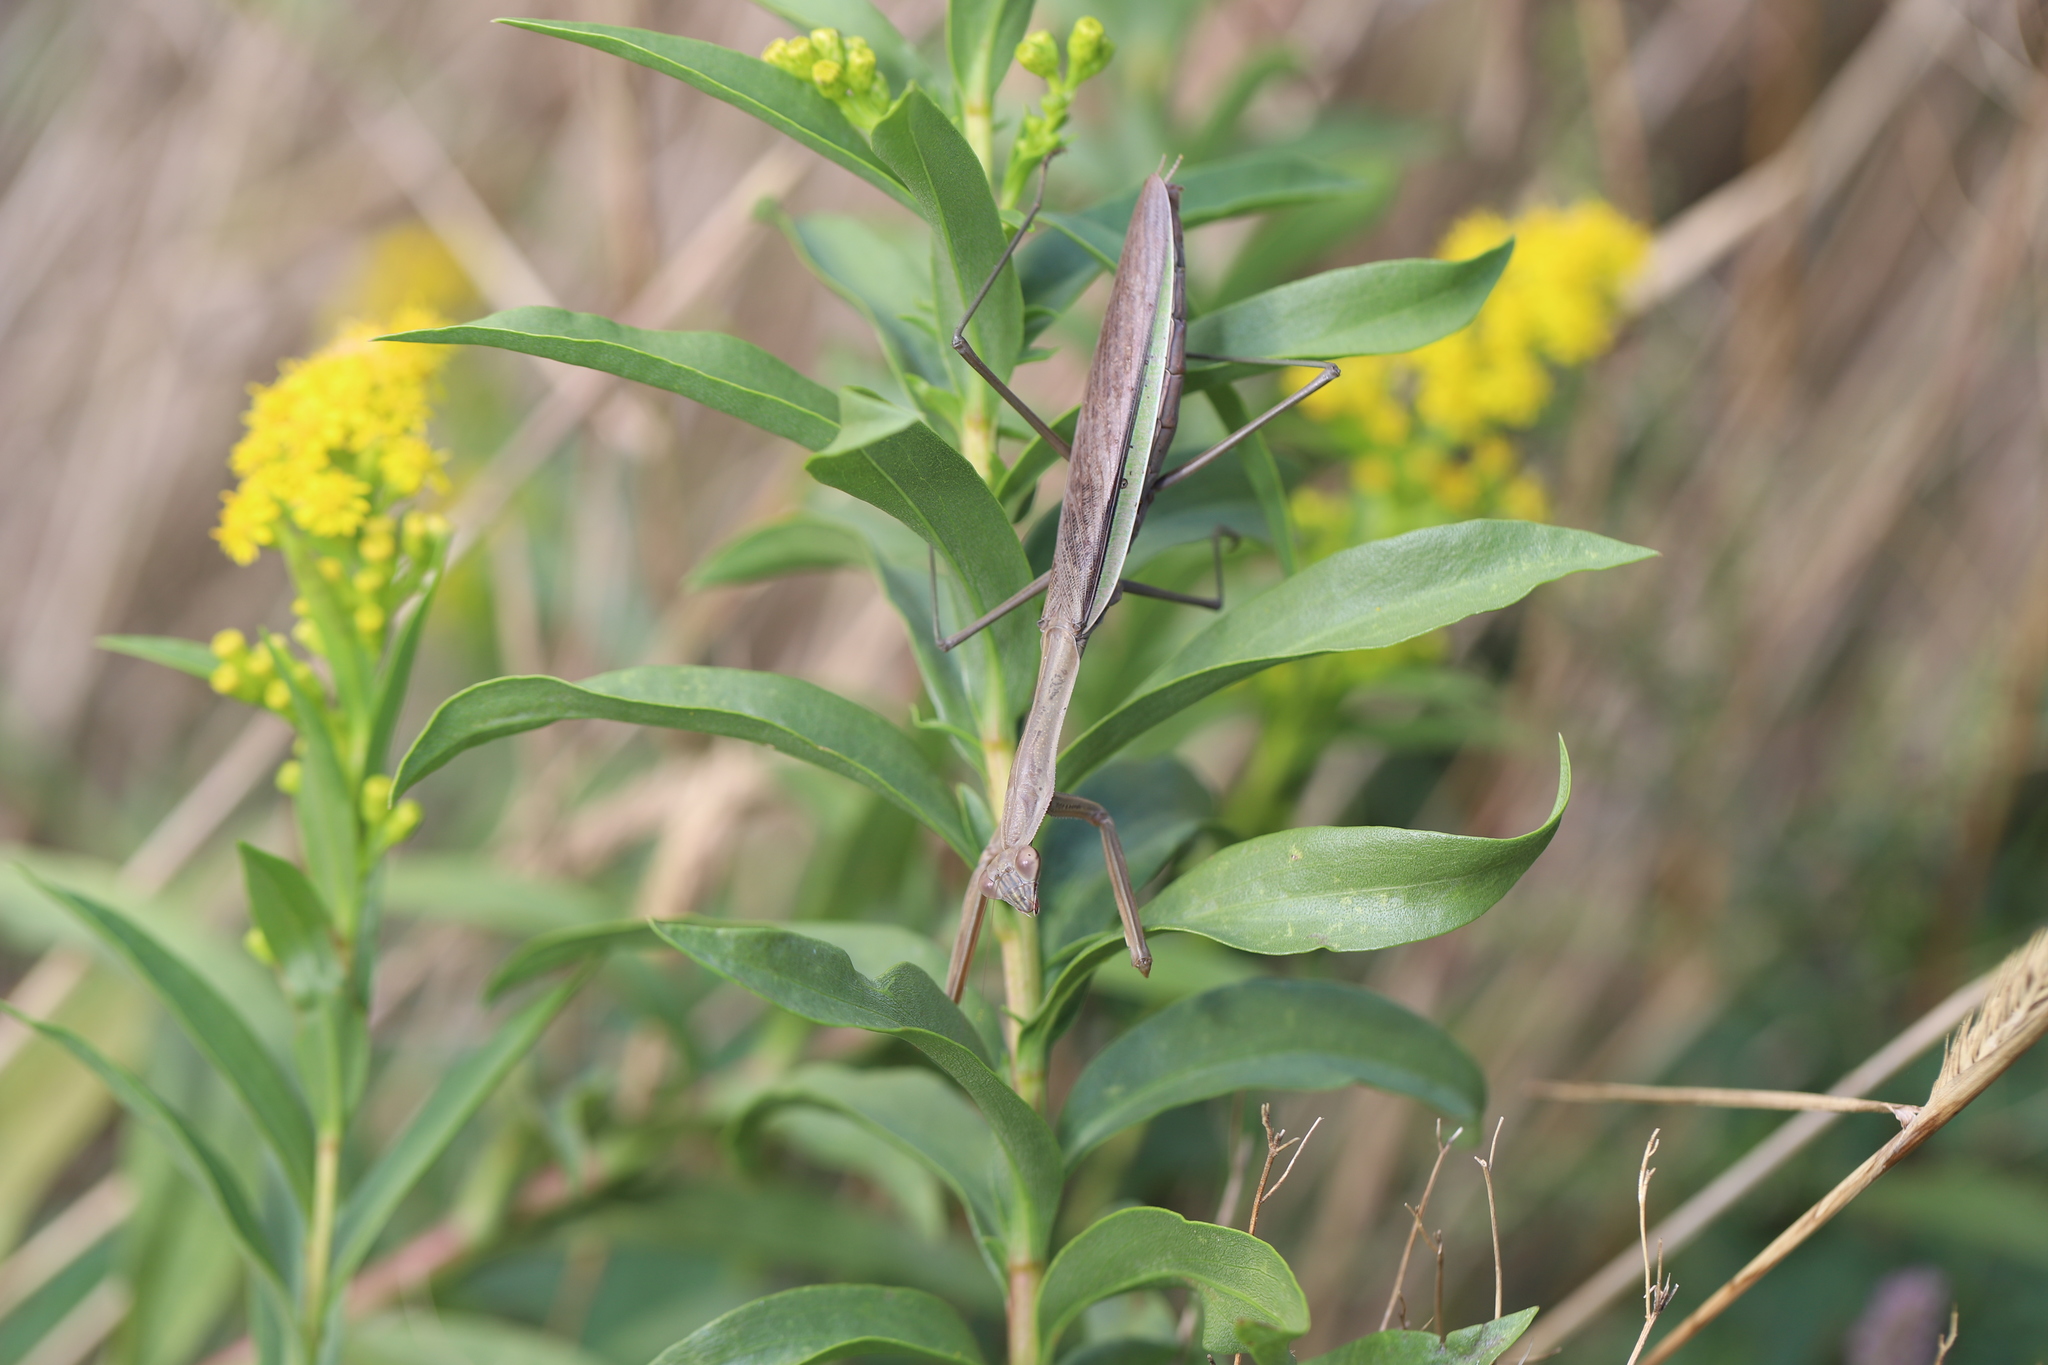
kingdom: Animalia
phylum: Arthropoda
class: Insecta
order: Mantodea
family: Mantidae
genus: Tenodera
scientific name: Tenodera sinensis
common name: Chinese mantis
